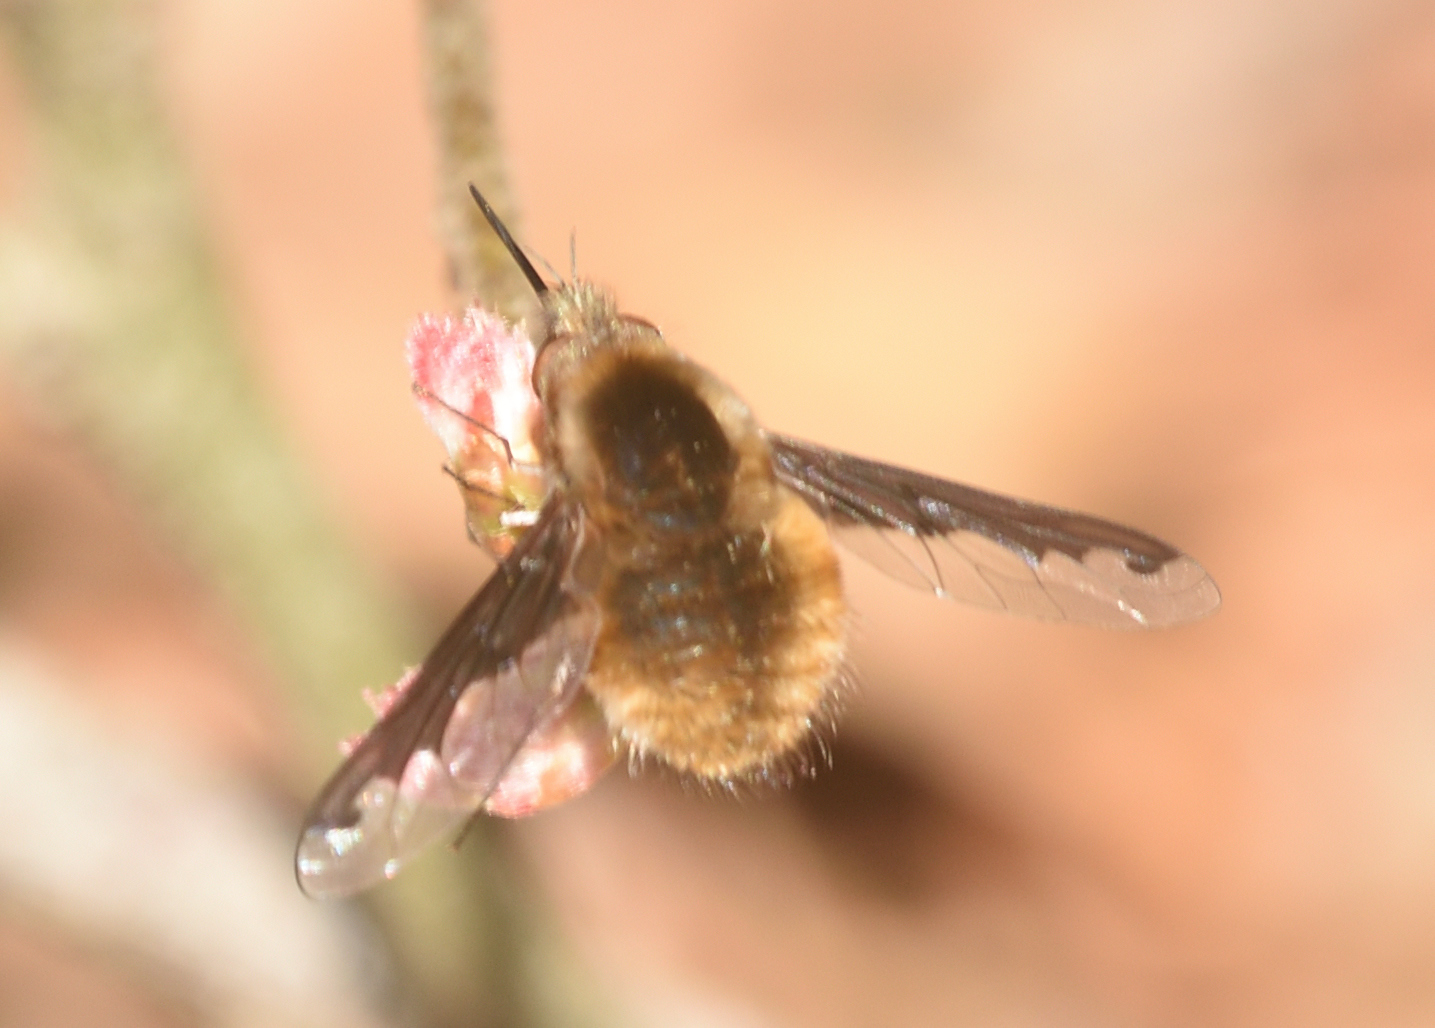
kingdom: Animalia
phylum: Arthropoda
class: Insecta
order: Diptera
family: Bombyliidae
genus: Bombylius
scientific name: Bombylius major
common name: Bee fly
